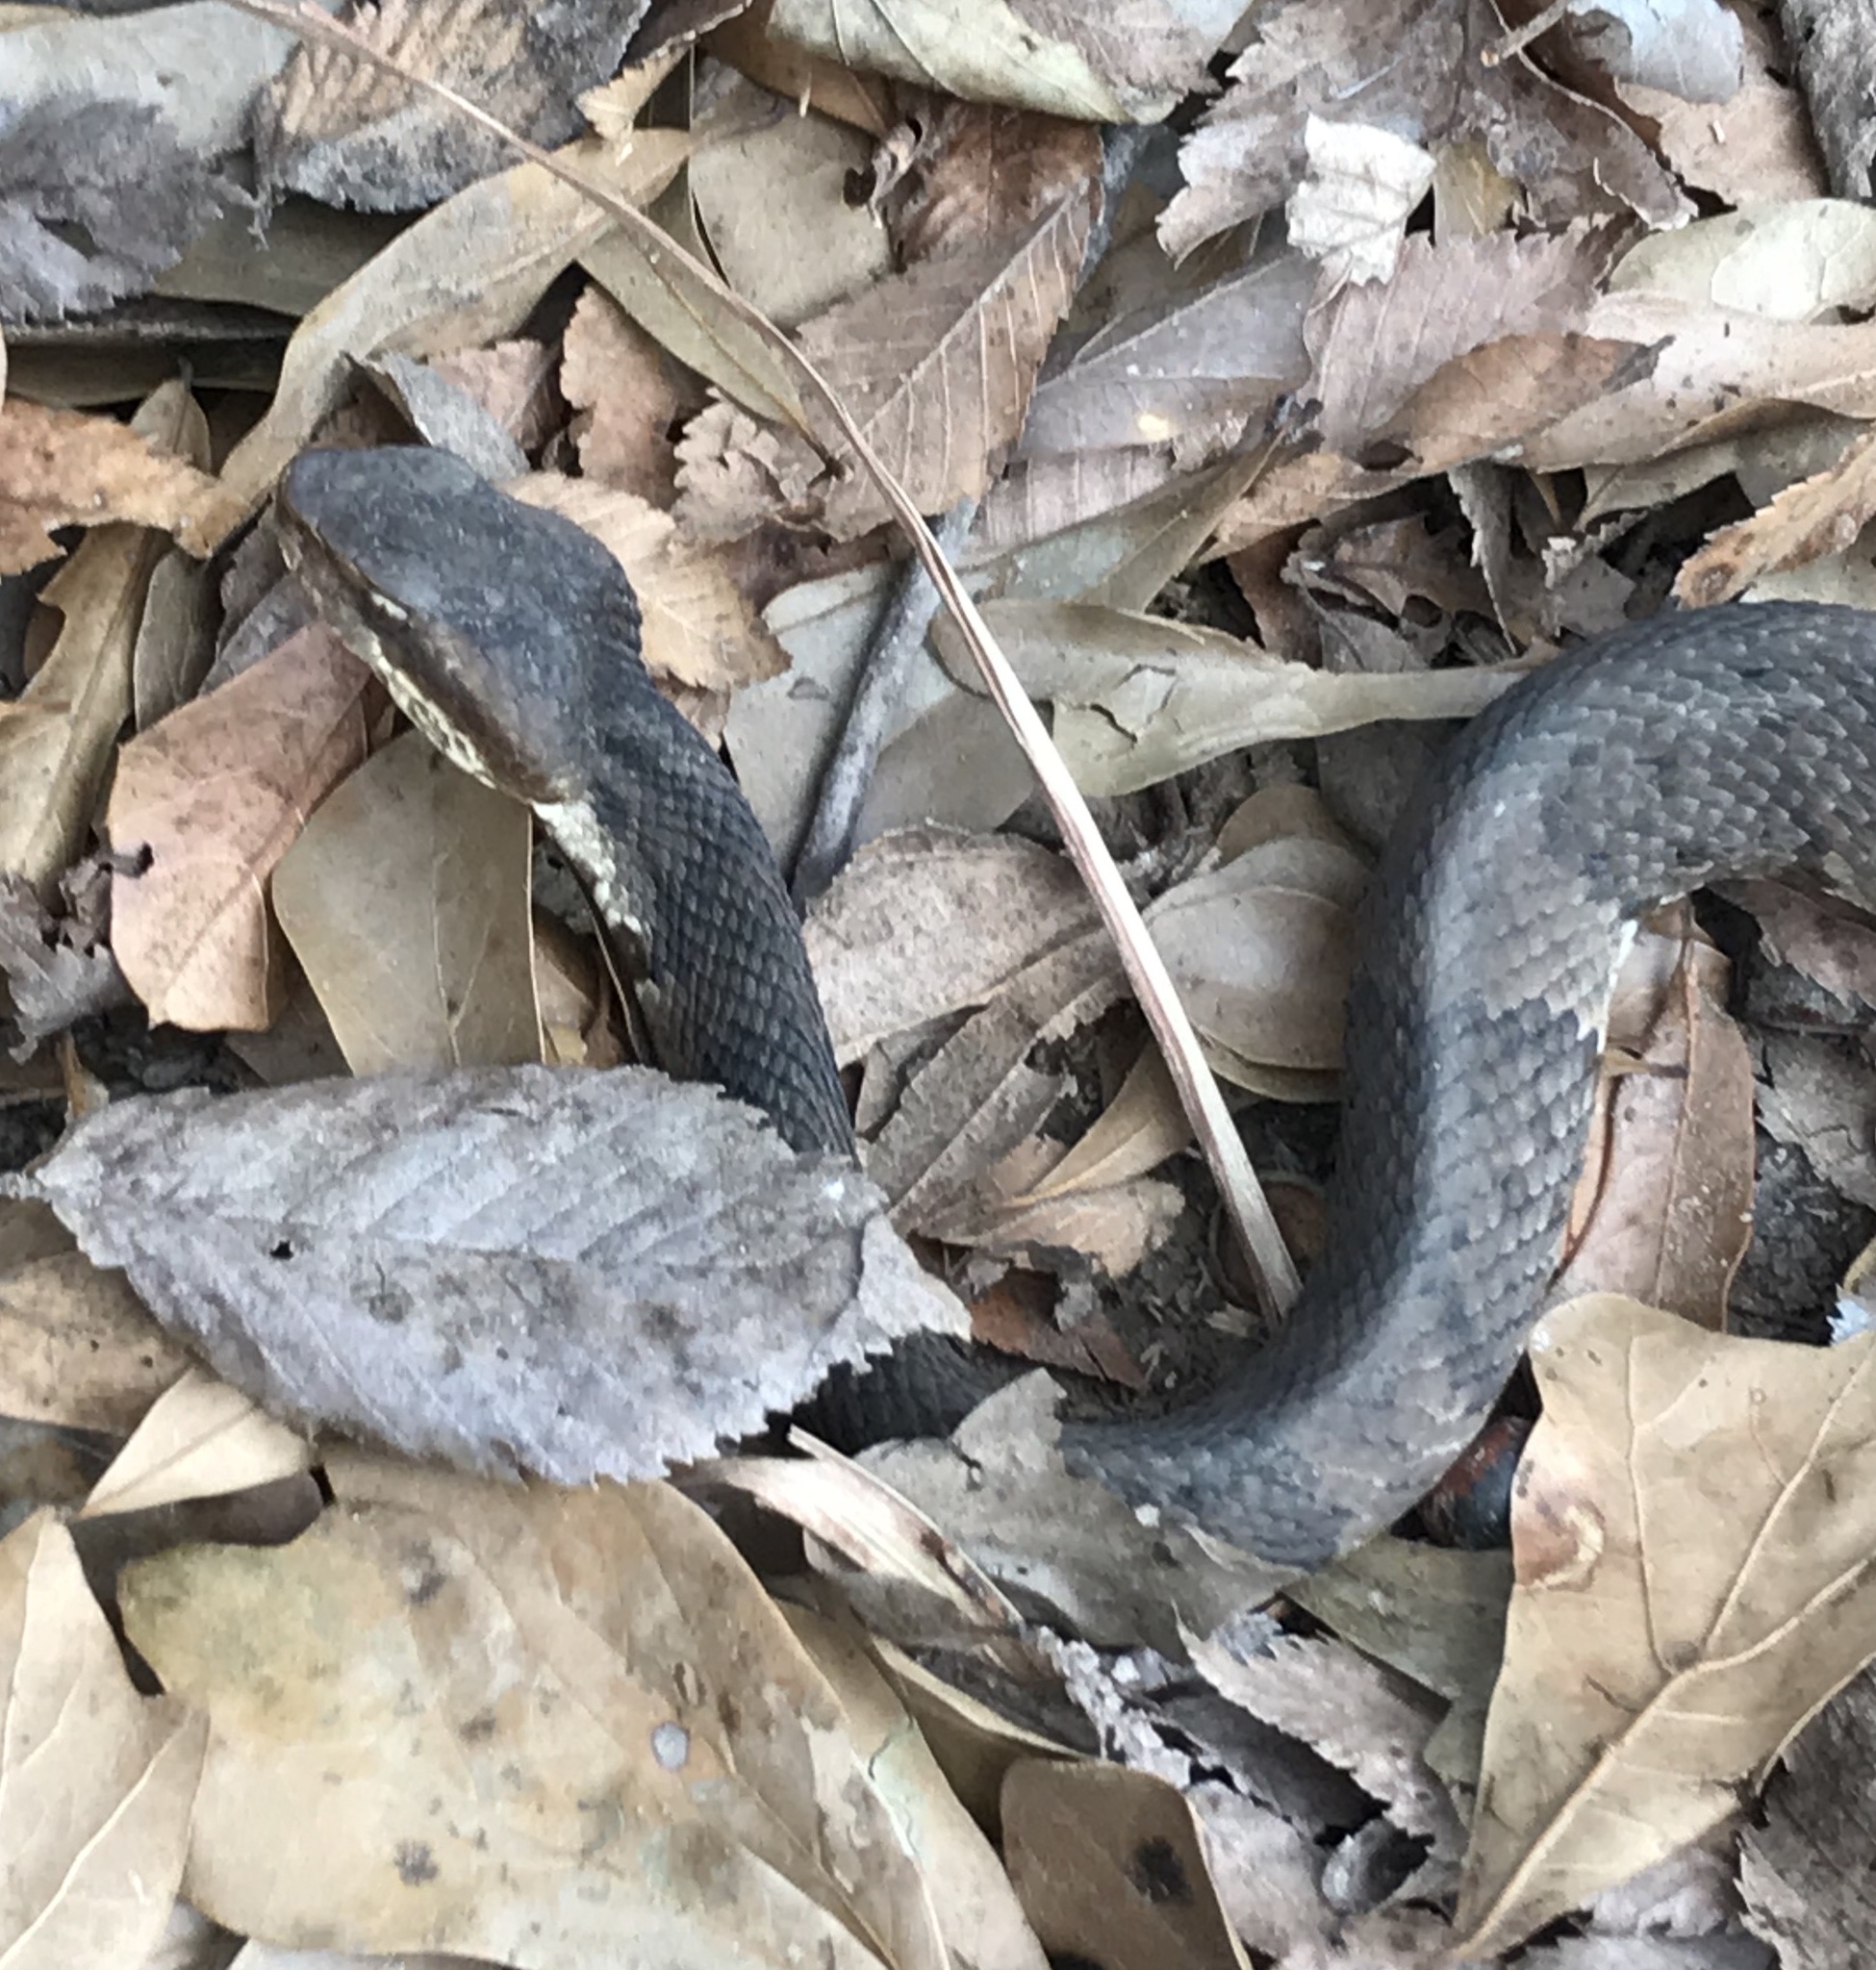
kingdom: Animalia
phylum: Chordata
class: Squamata
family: Viperidae
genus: Agkistrodon
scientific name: Agkistrodon piscivorus
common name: Cottonmouth
